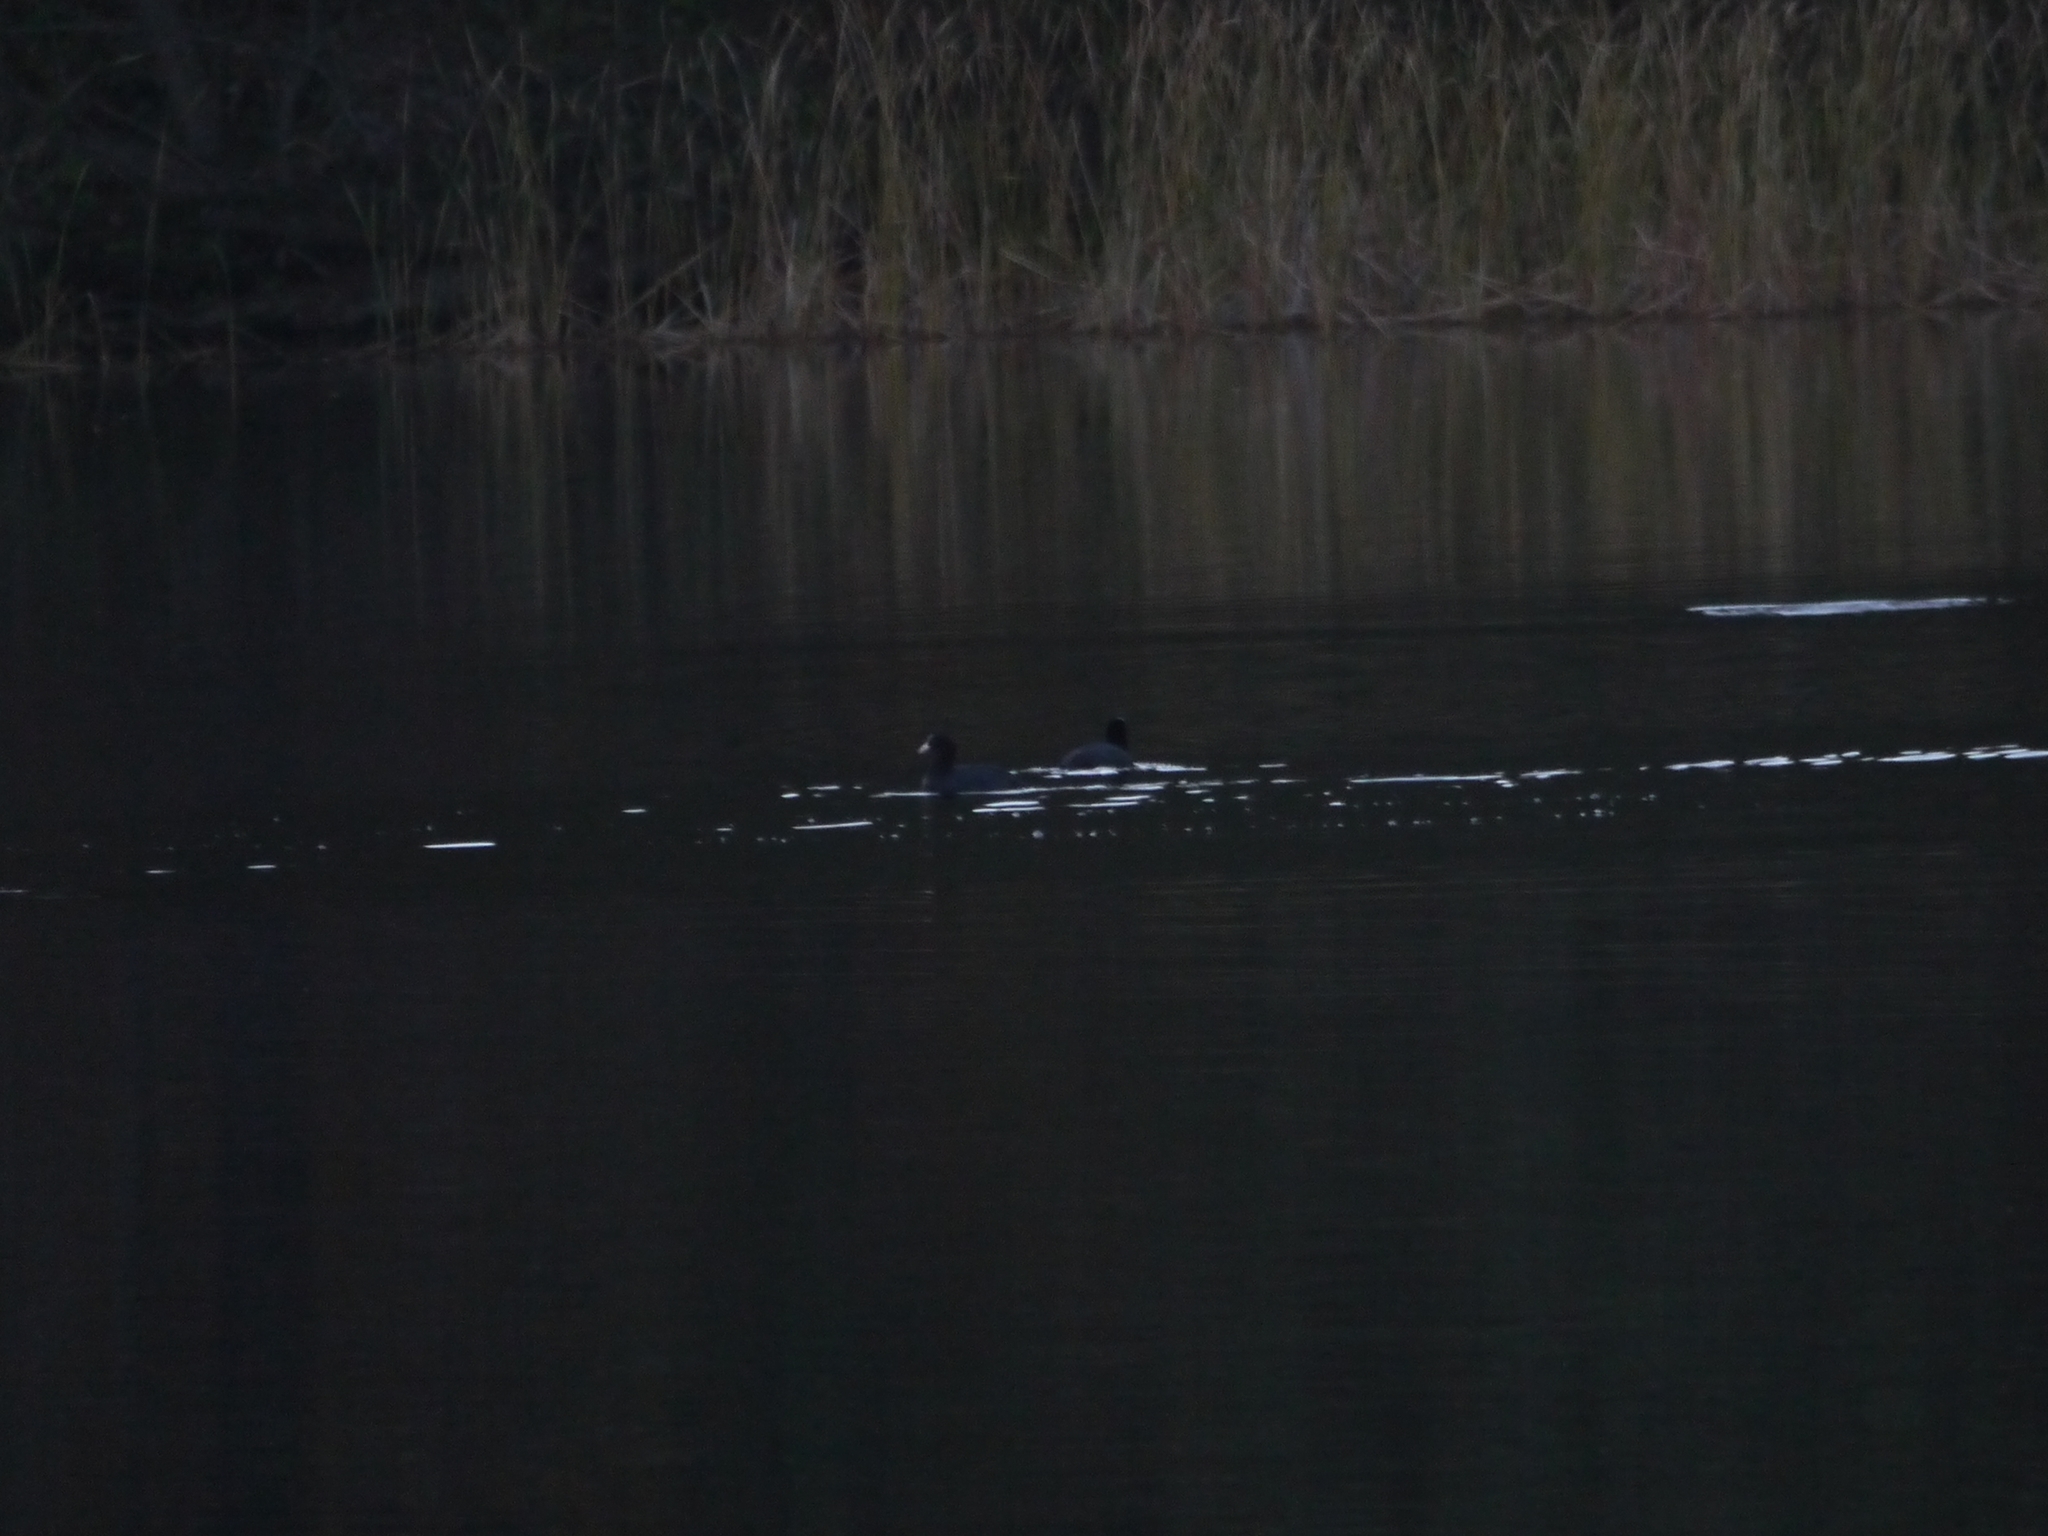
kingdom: Animalia
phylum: Chordata
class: Aves
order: Gruiformes
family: Rallidae
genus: Fulica
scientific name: Fulica atra
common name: Eurasian coot
